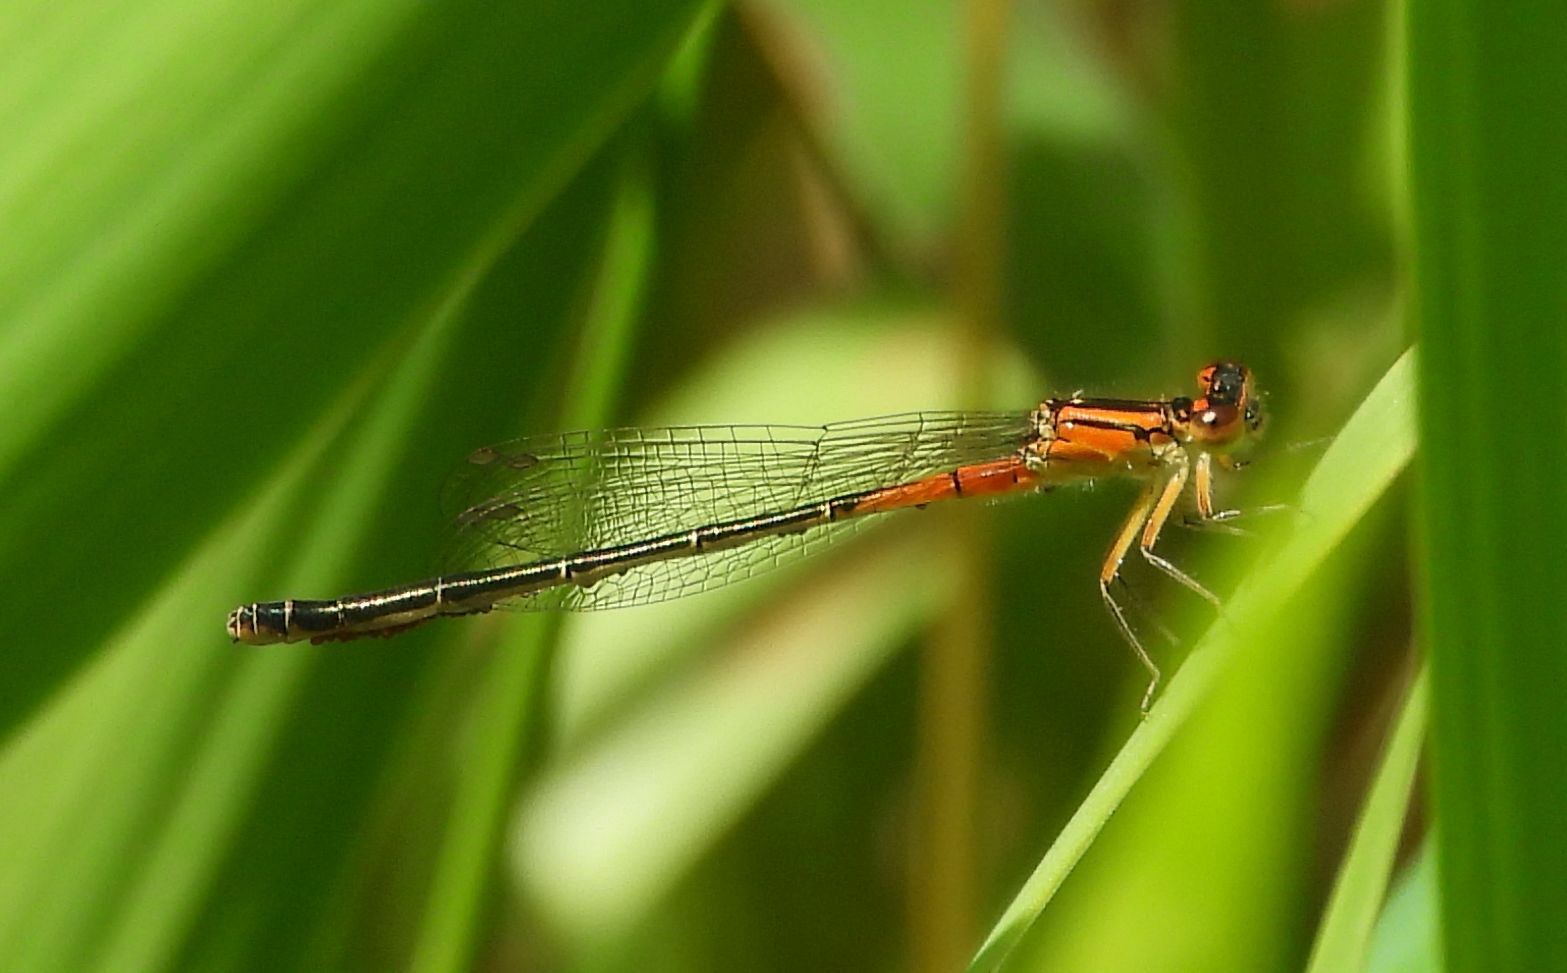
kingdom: Animalia
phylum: Arthropoda
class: Insecta
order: Odonata
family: Coenagrionidae
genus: Ischnura
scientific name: Ischnura verticalis
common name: Eastern forktail
